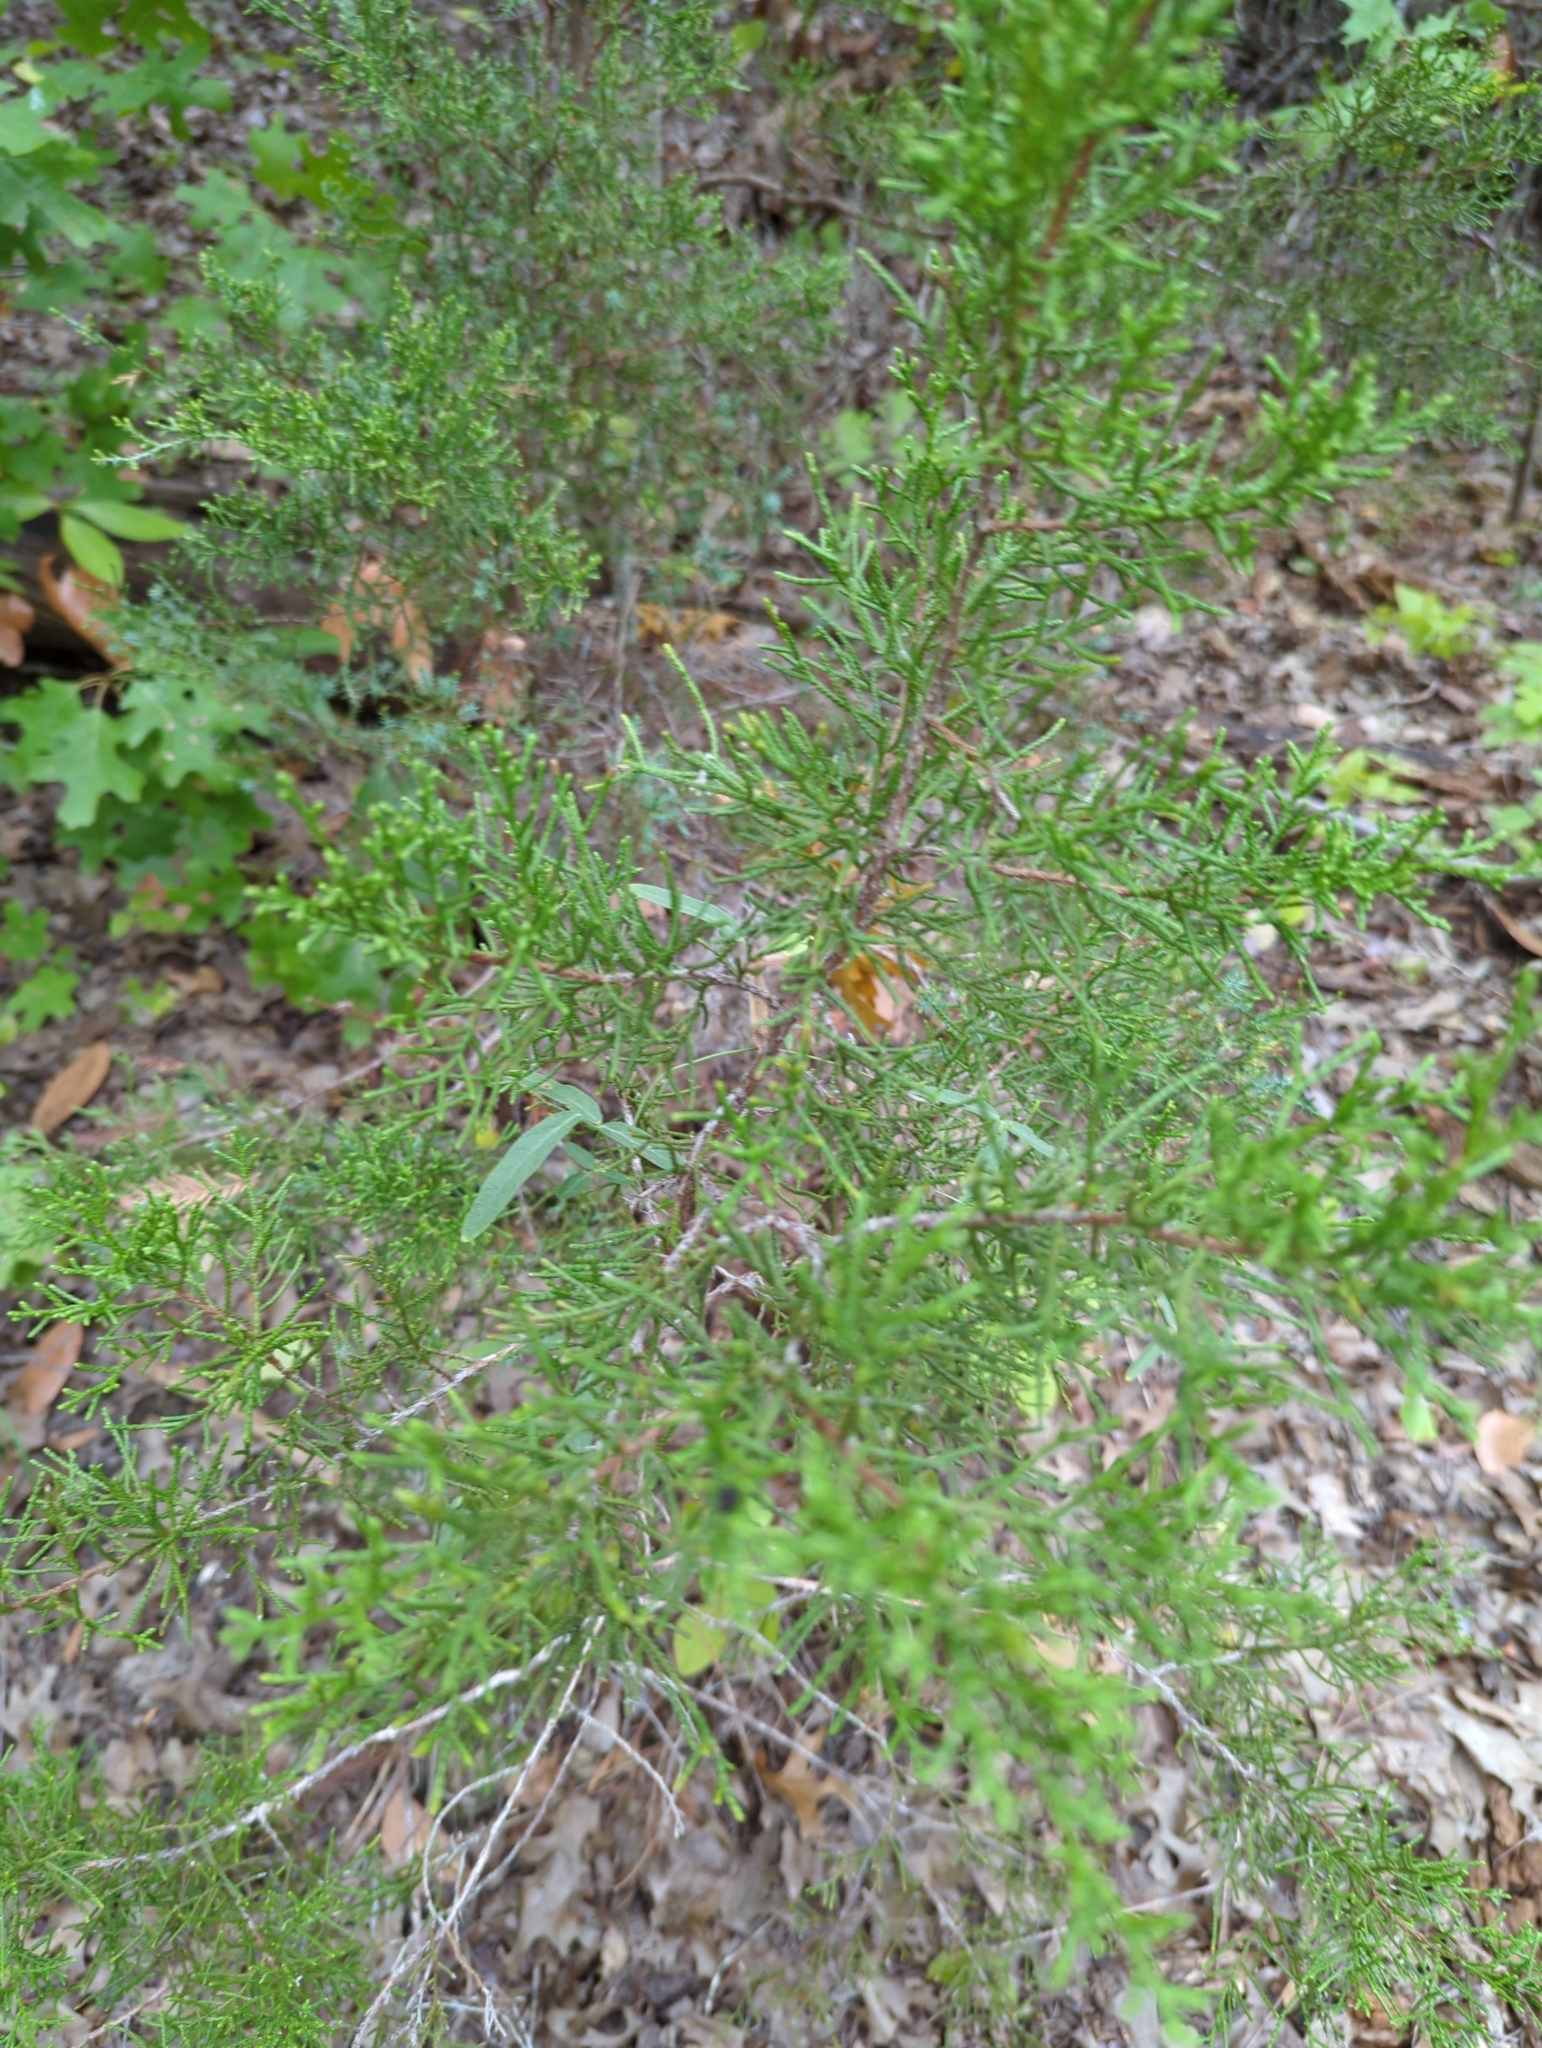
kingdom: Plantae
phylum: Tracheophyta
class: Pinopsida
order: Pinales
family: Cupressaceae
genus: Juniperus
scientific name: Juniperus ashei
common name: Mexican juniper
